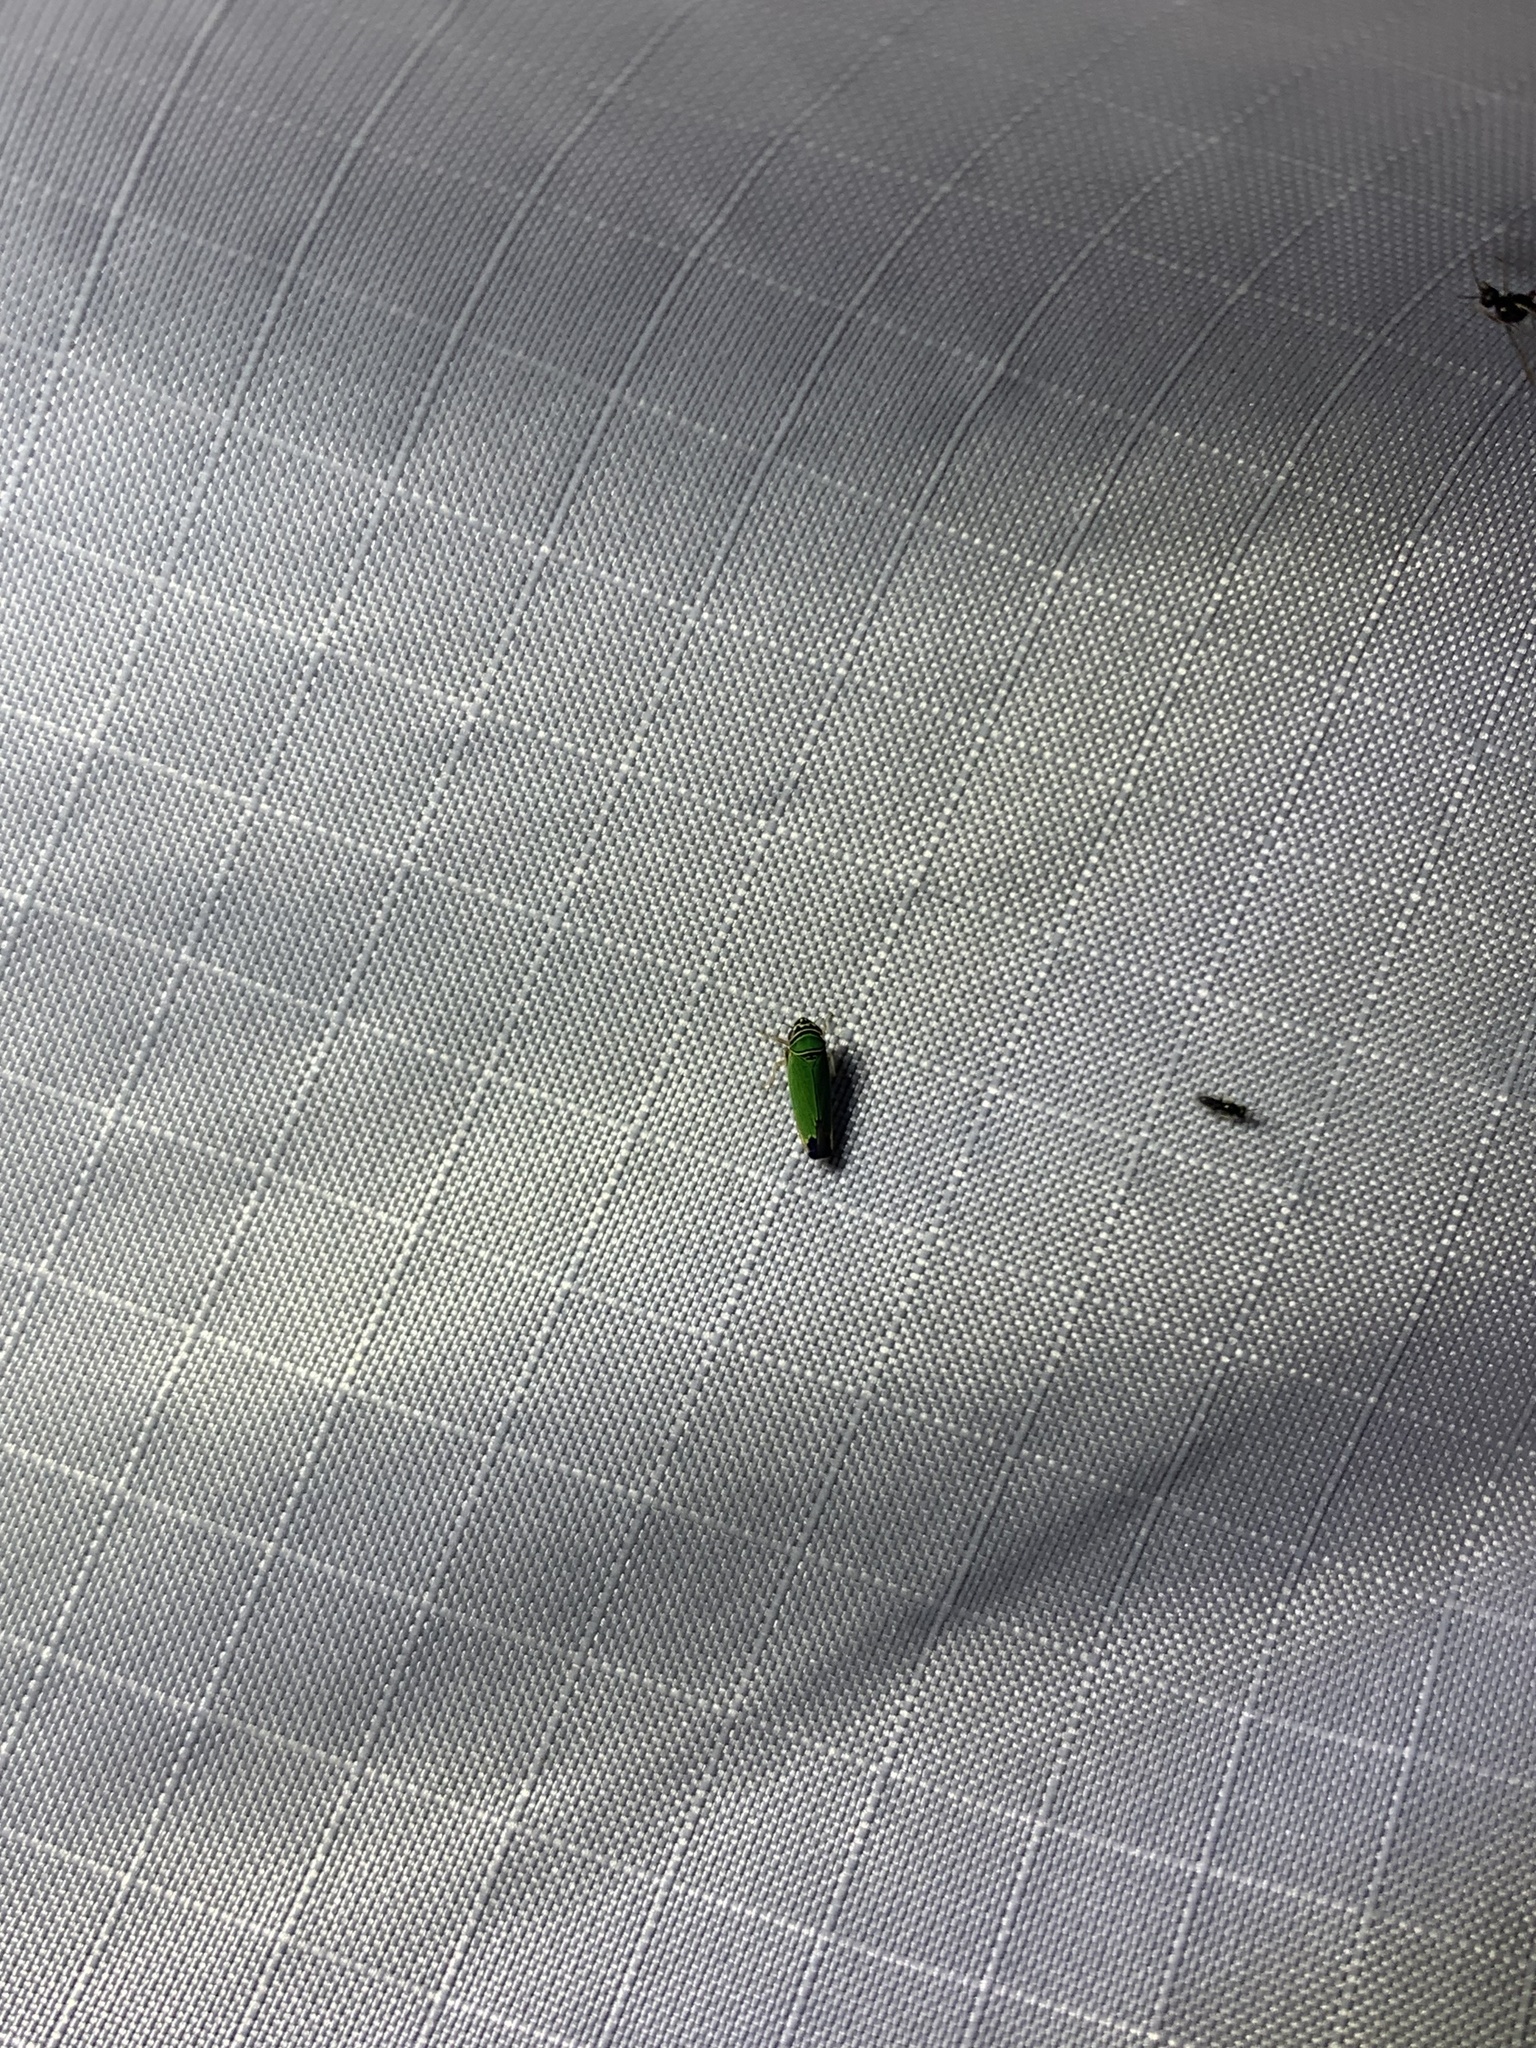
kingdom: Animalia
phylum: Arthropoda
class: Insecta
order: Hemiptera
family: Cicadellidae
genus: Tylozygus
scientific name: Tylozygus geometricus
